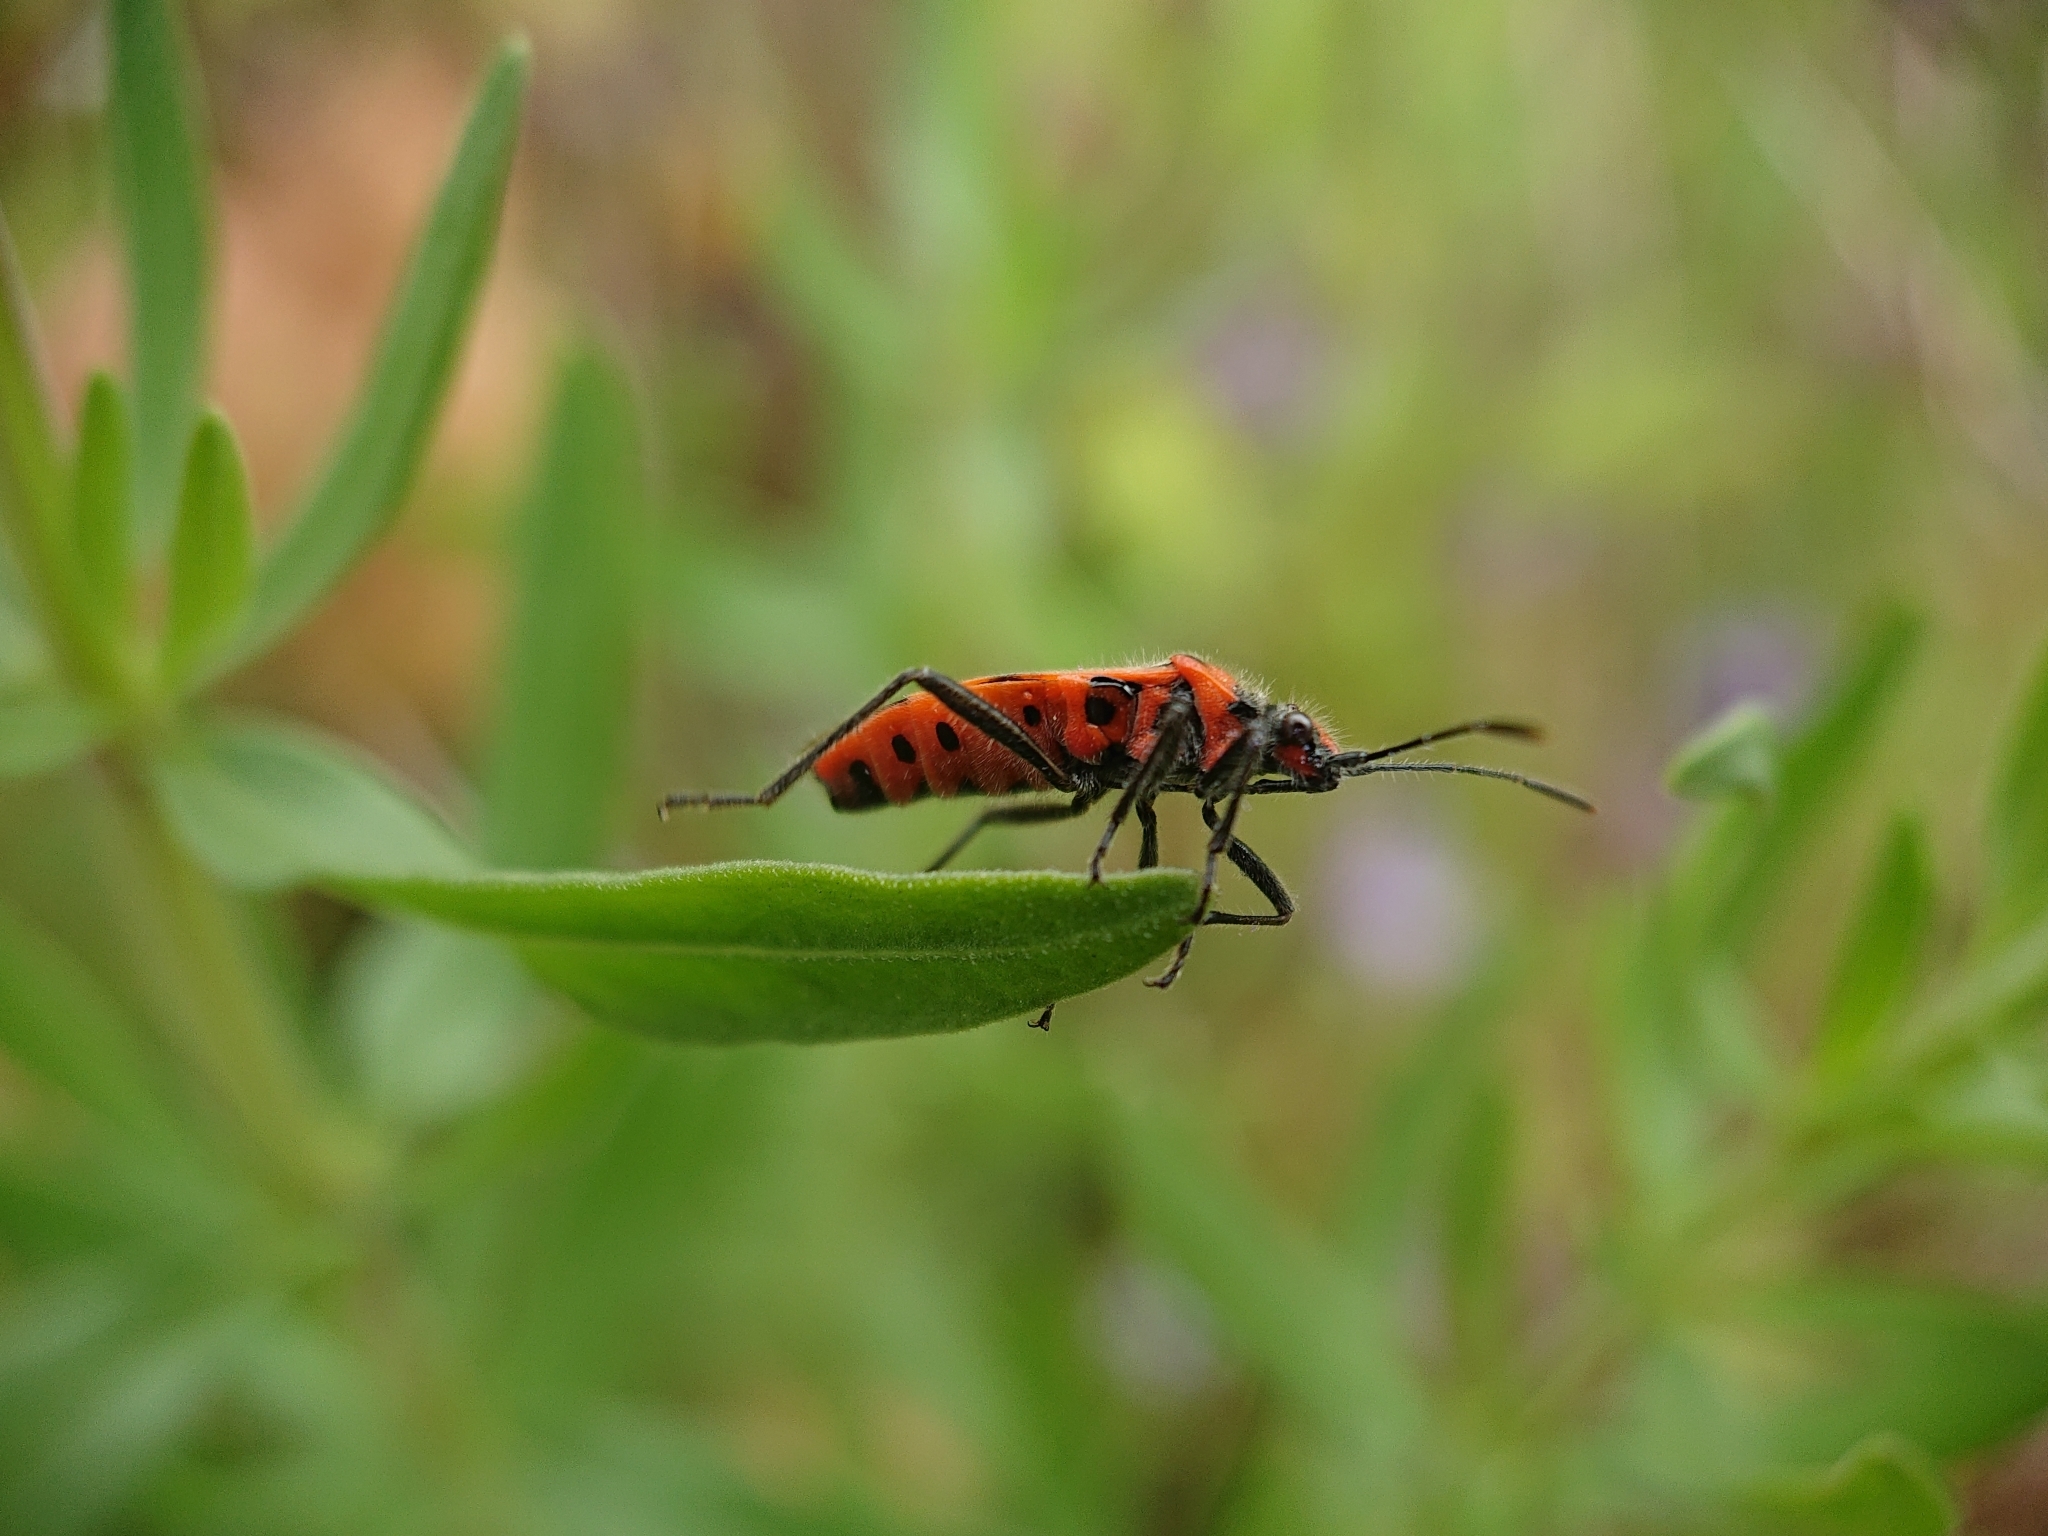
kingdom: Animalia
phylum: Arthropoda
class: Insecta
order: Hemiptera
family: Rhopalidae
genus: Corizus
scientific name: Corizus hyoscyami
